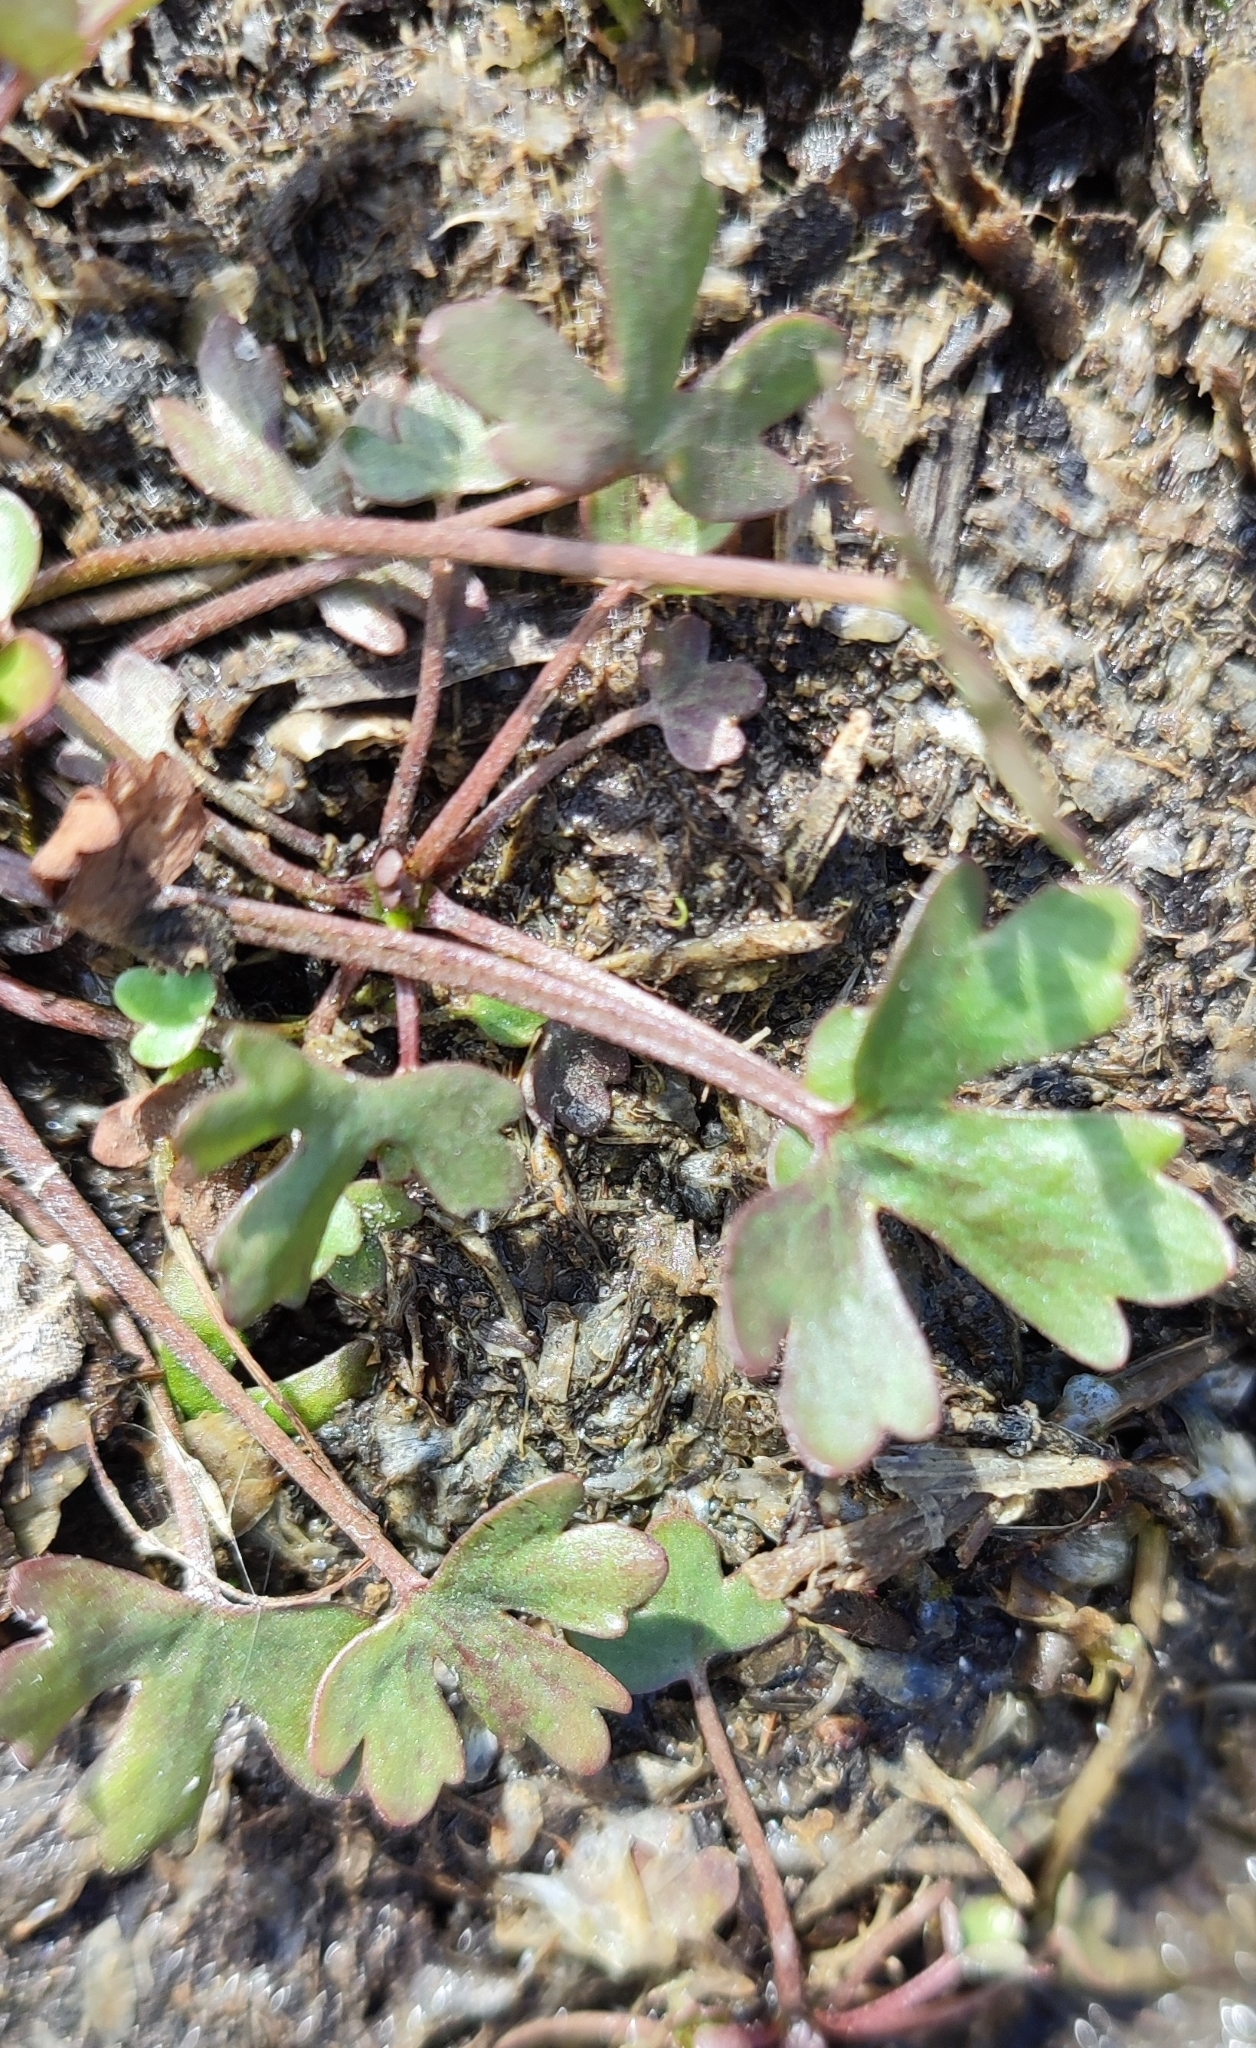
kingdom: Plantae
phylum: Tracheophyta
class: Magnoliopsida
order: Ranunculales
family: Ranunculaceae
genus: Ranunculus
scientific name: Ranunculus sceleratus
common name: Celery-leaved buttercup
